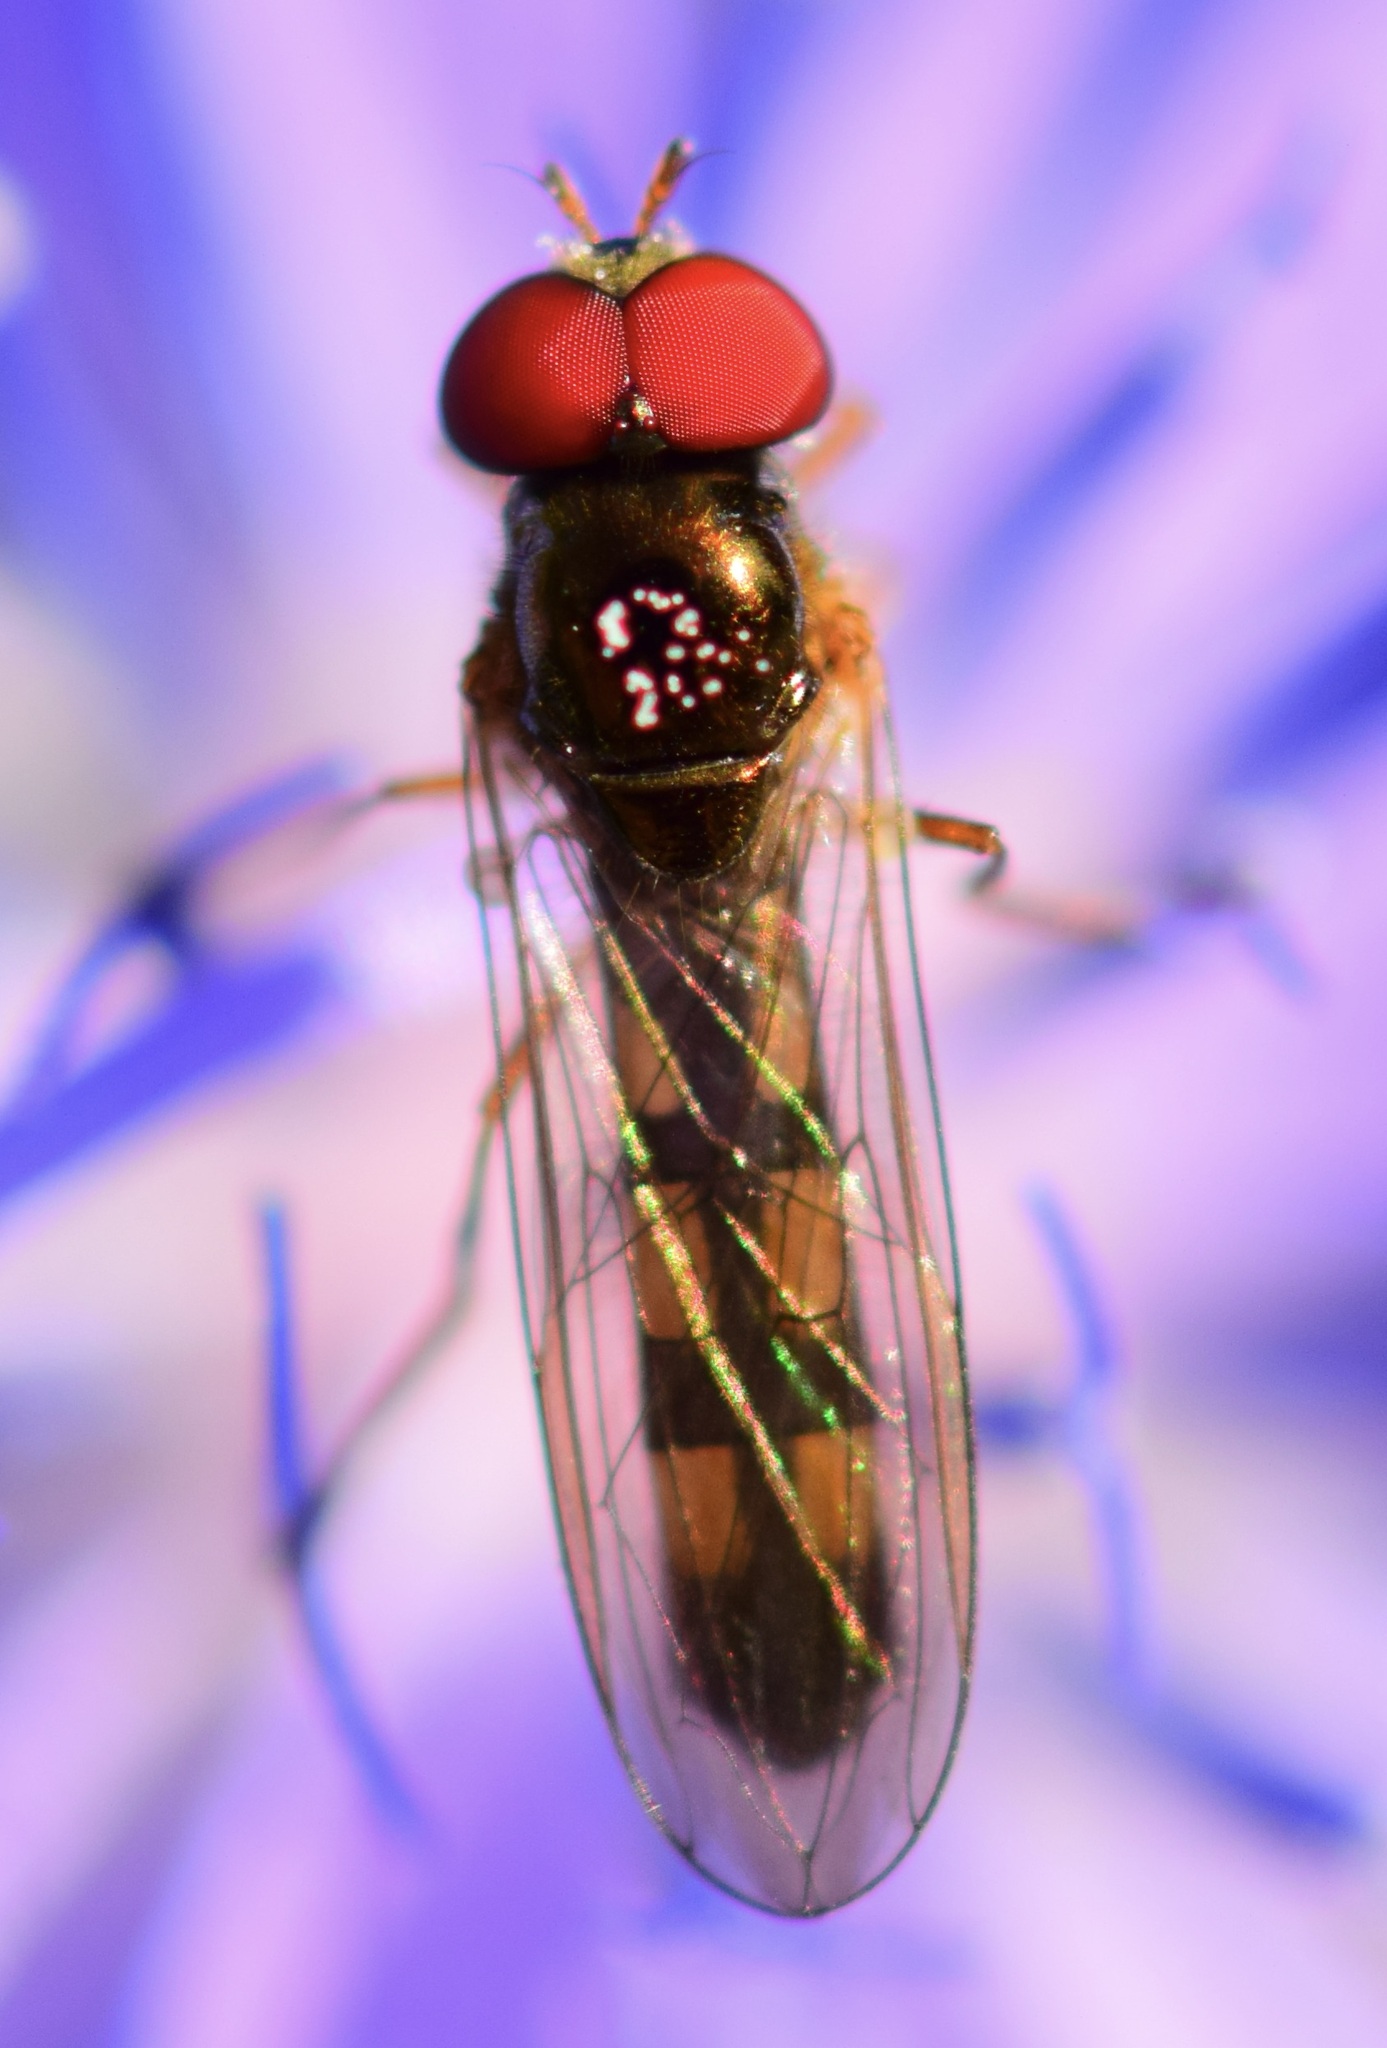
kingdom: Animalia
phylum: Arthropoda
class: Insecta
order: Diptera
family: Syrphidae
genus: Melanostoma
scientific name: Melanostoma mellina
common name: Hover fly
